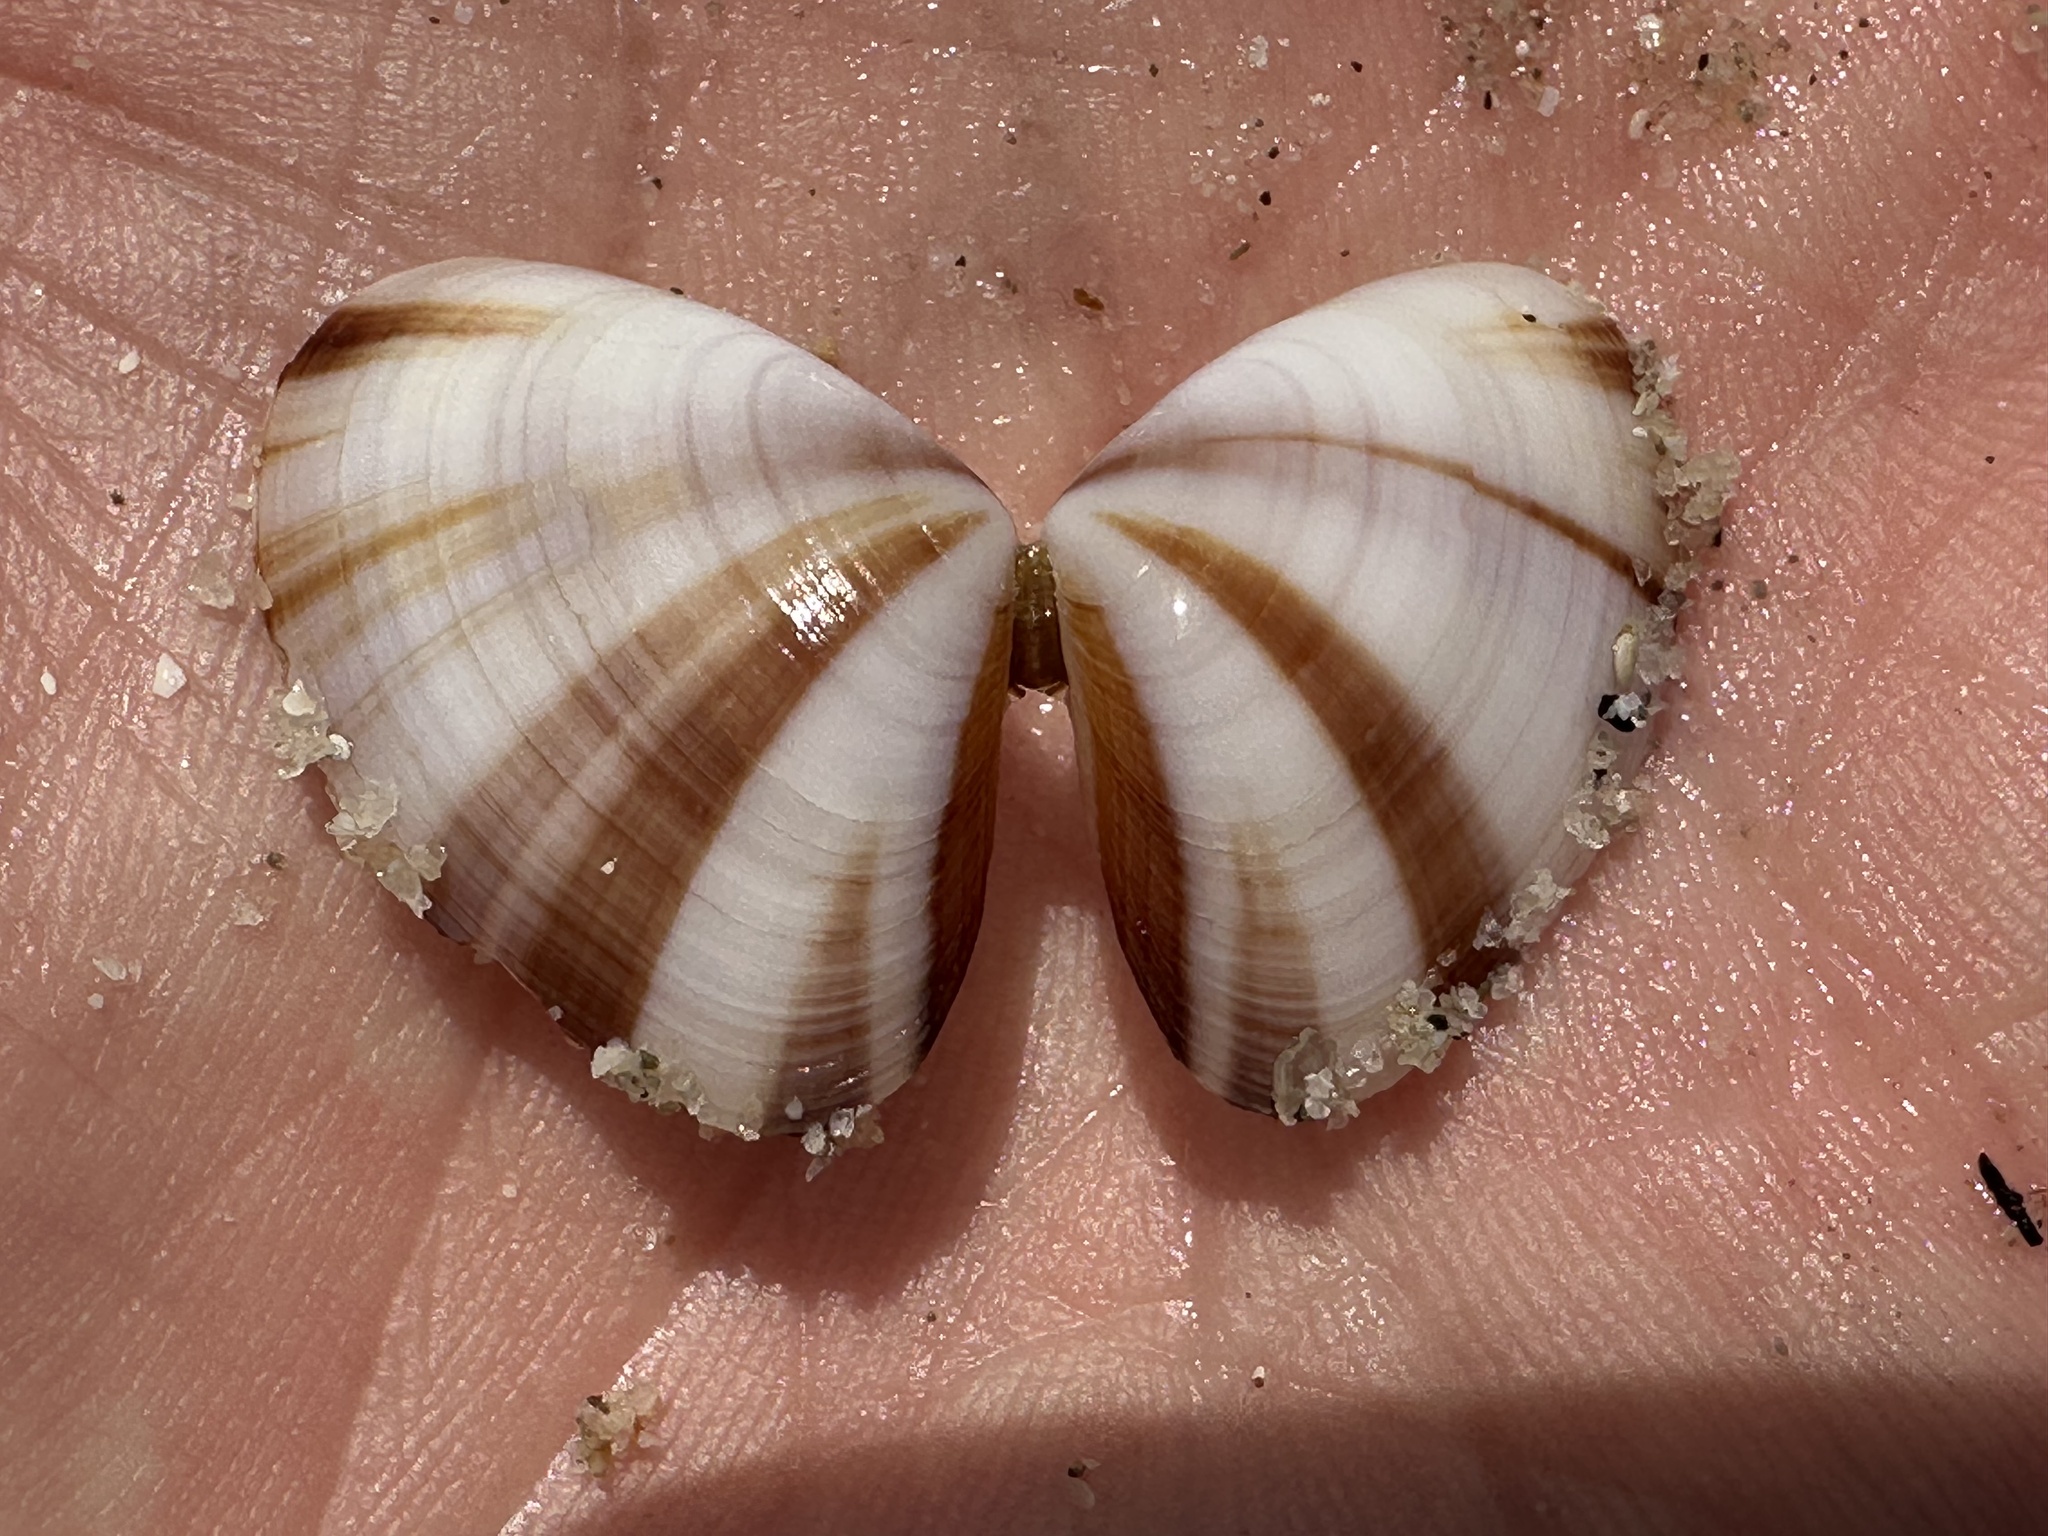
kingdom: Animalia
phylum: Mollusca
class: Bivalvia
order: Cardiida
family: Donacidae
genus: Donax
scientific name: Donax faba
